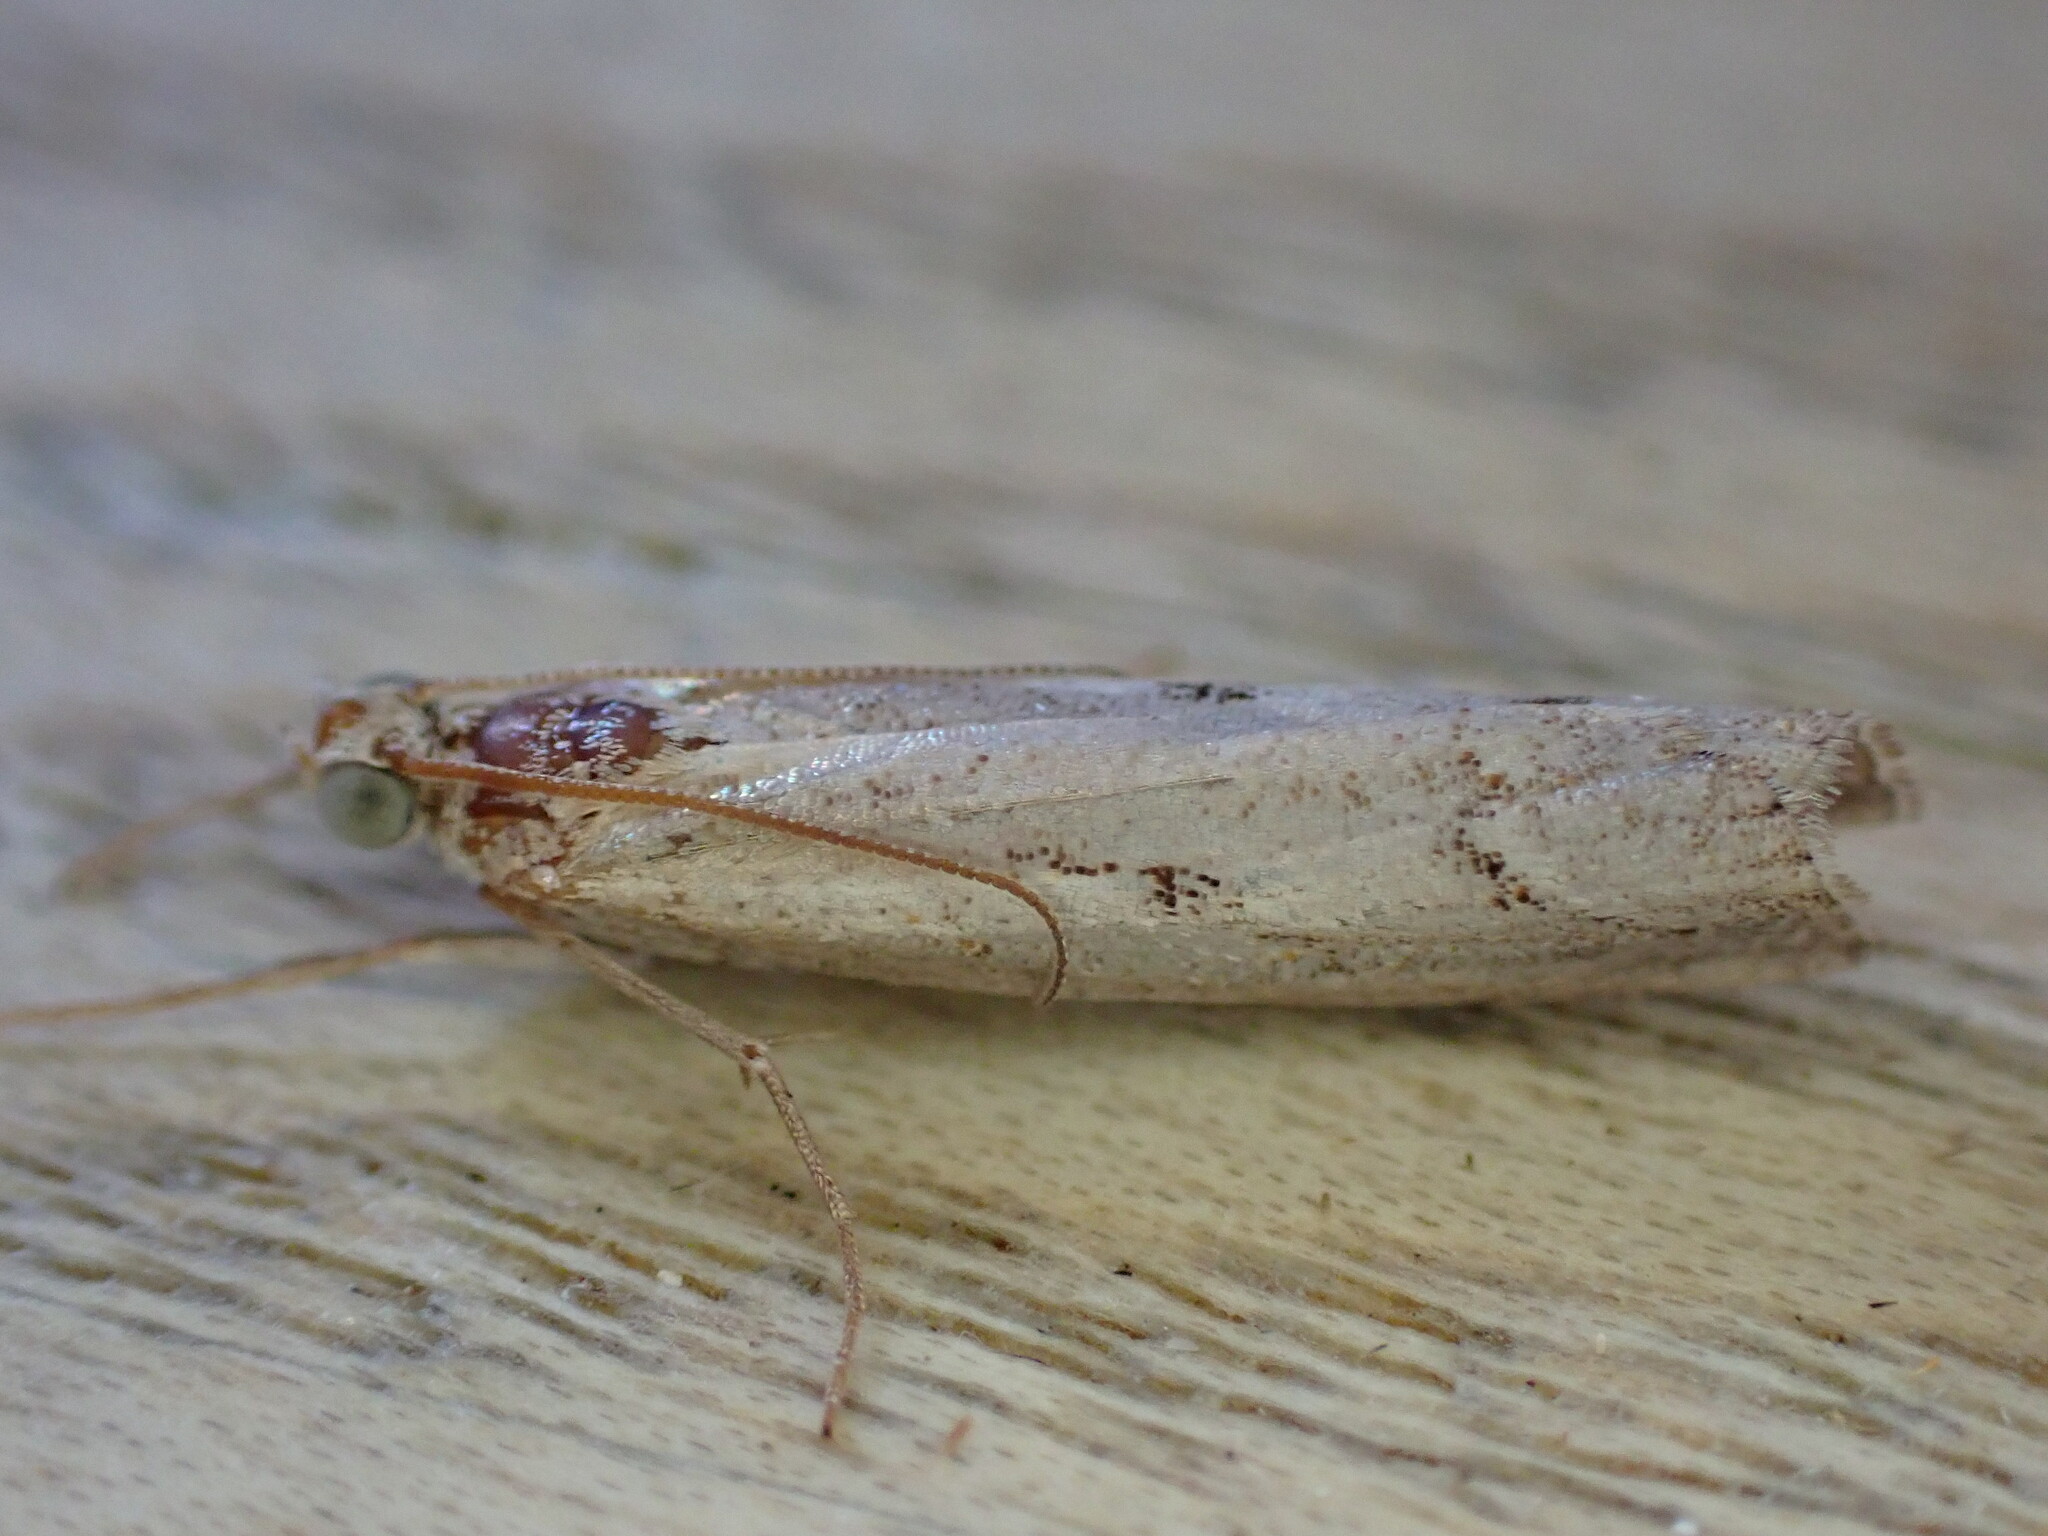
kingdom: Animalia
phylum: Arthropoda
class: Insecta
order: Lepidoptera
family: Crambidae
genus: Agriphila
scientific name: Agriphila geniculea
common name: Elbow-stripe grass-veneer
